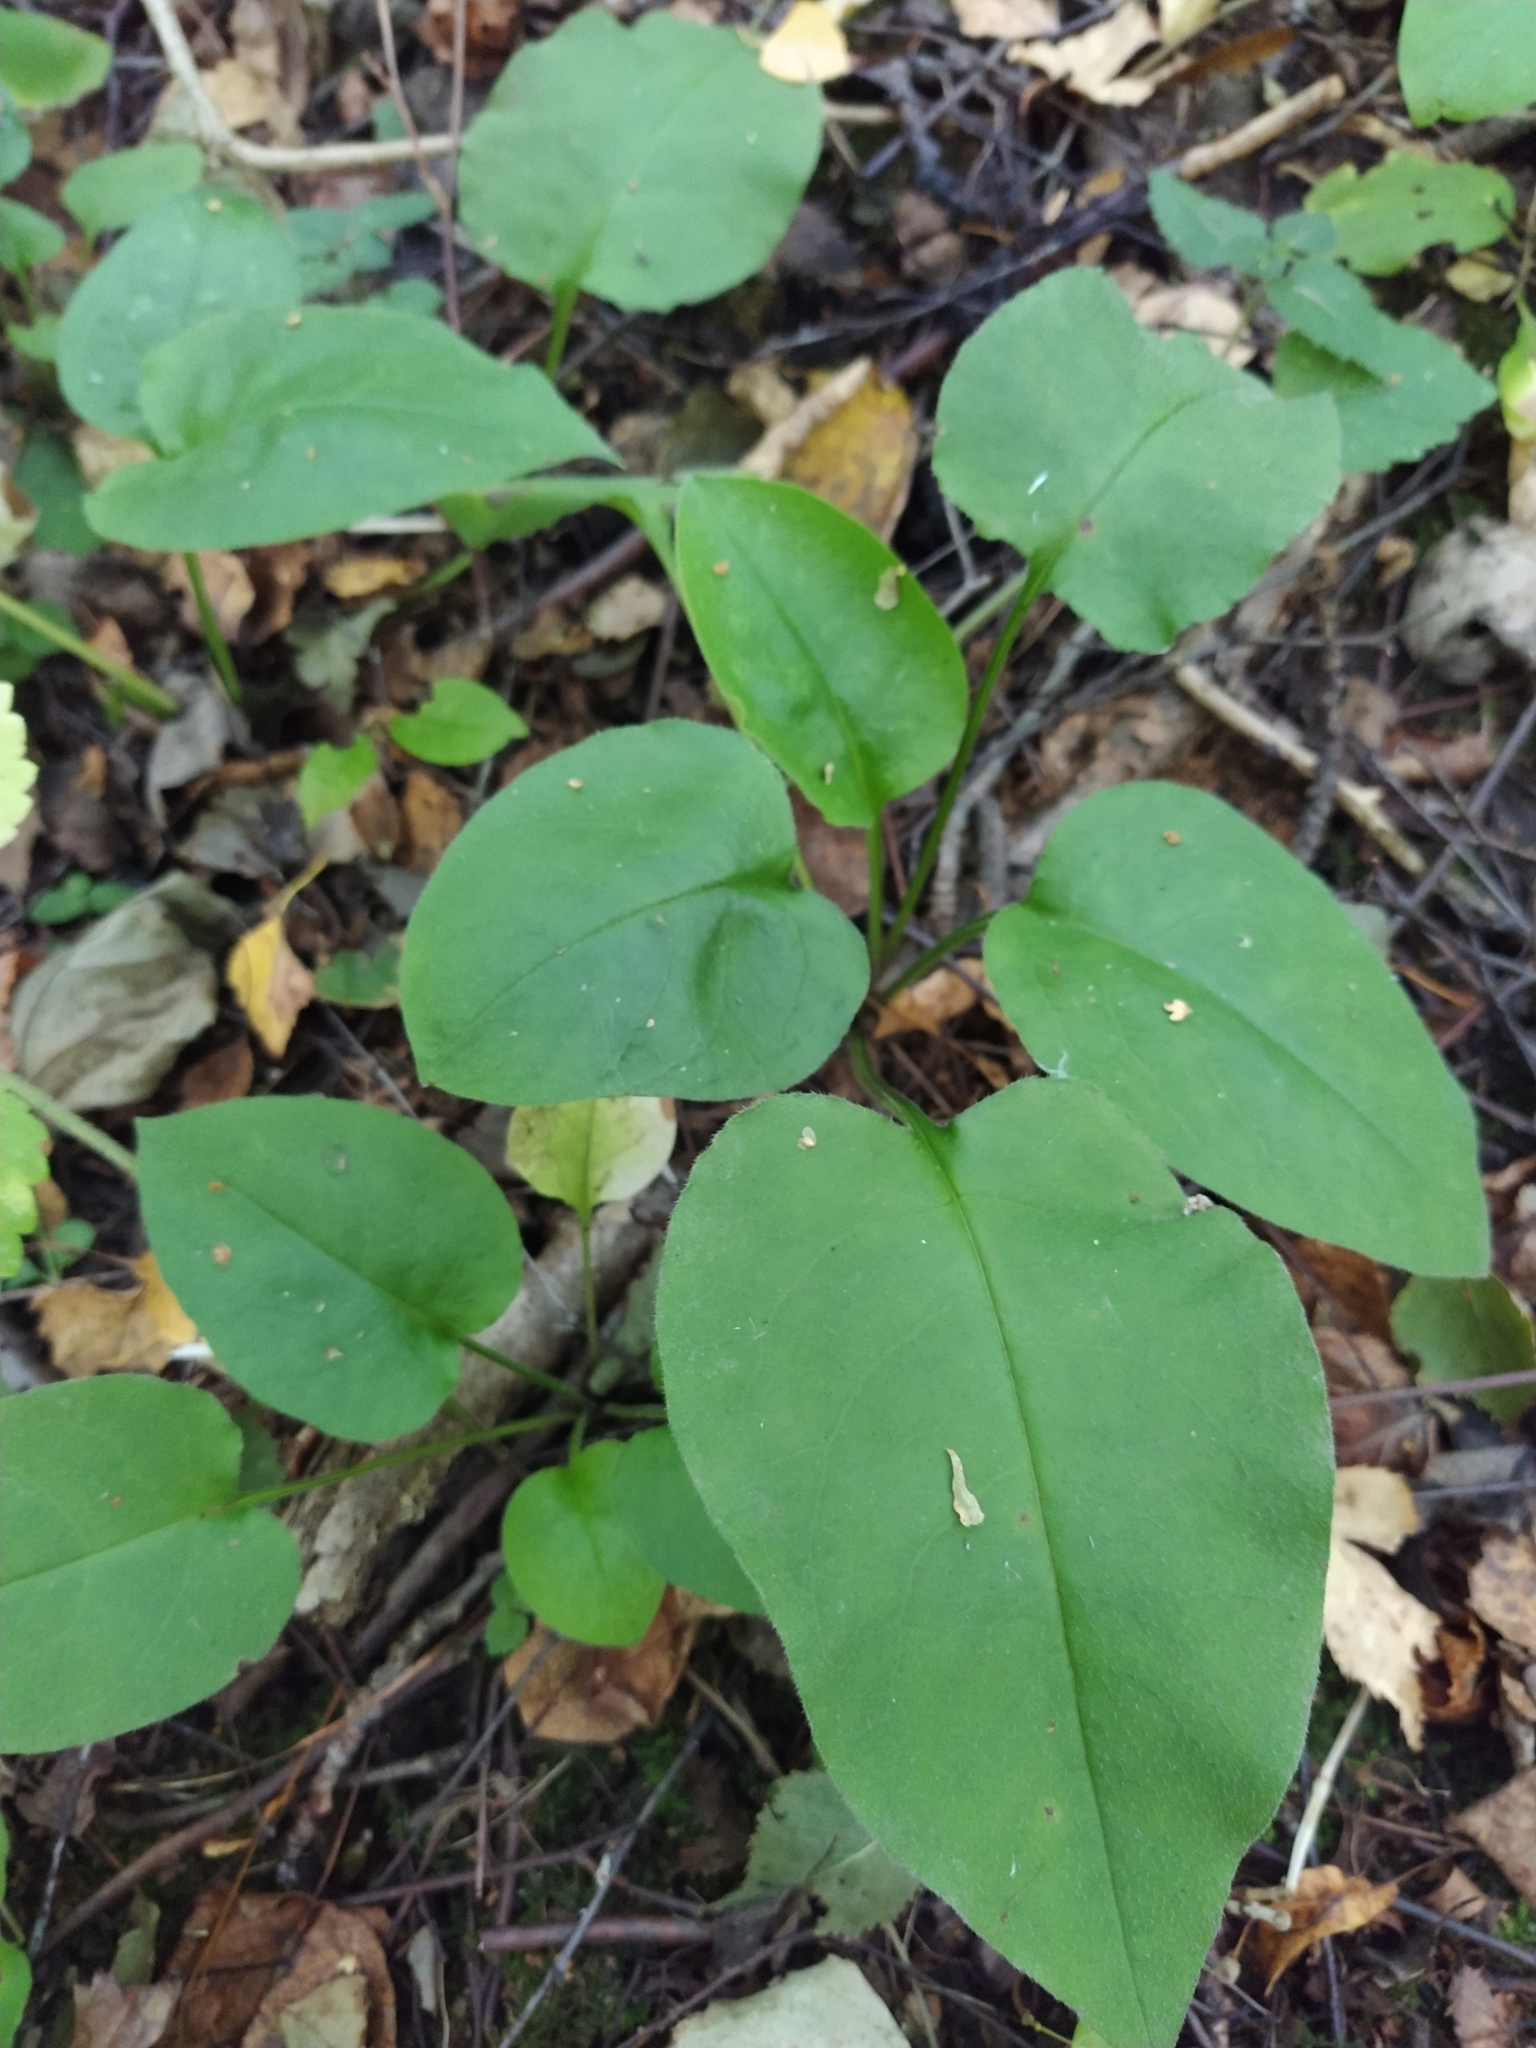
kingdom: Plantae
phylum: Tracheophyta
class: Magnoliopsida
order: Boraginales
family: Boraginaceae
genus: Pulmonaria
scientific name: Pulmonaria obscura
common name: Suffolk lungwort
